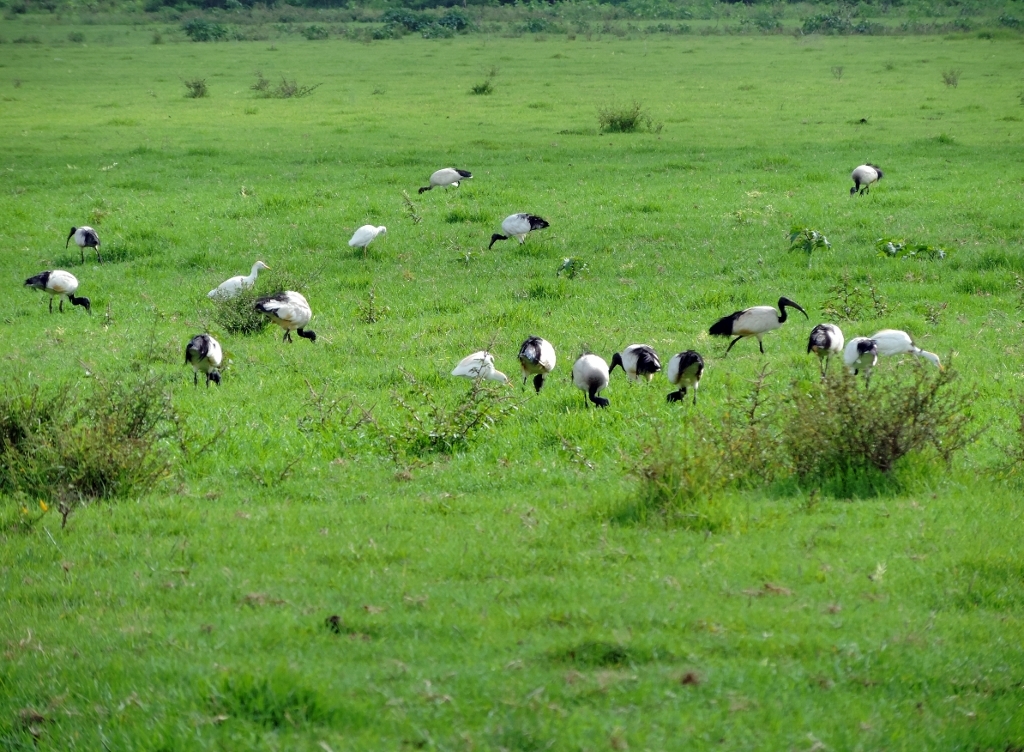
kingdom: Animalia
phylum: Chordata
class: Aves
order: Pelecaniformes
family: Threskiornithidae
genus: Threskiornis
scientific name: Threskiornis aethiopicus
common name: Sacred ibis
